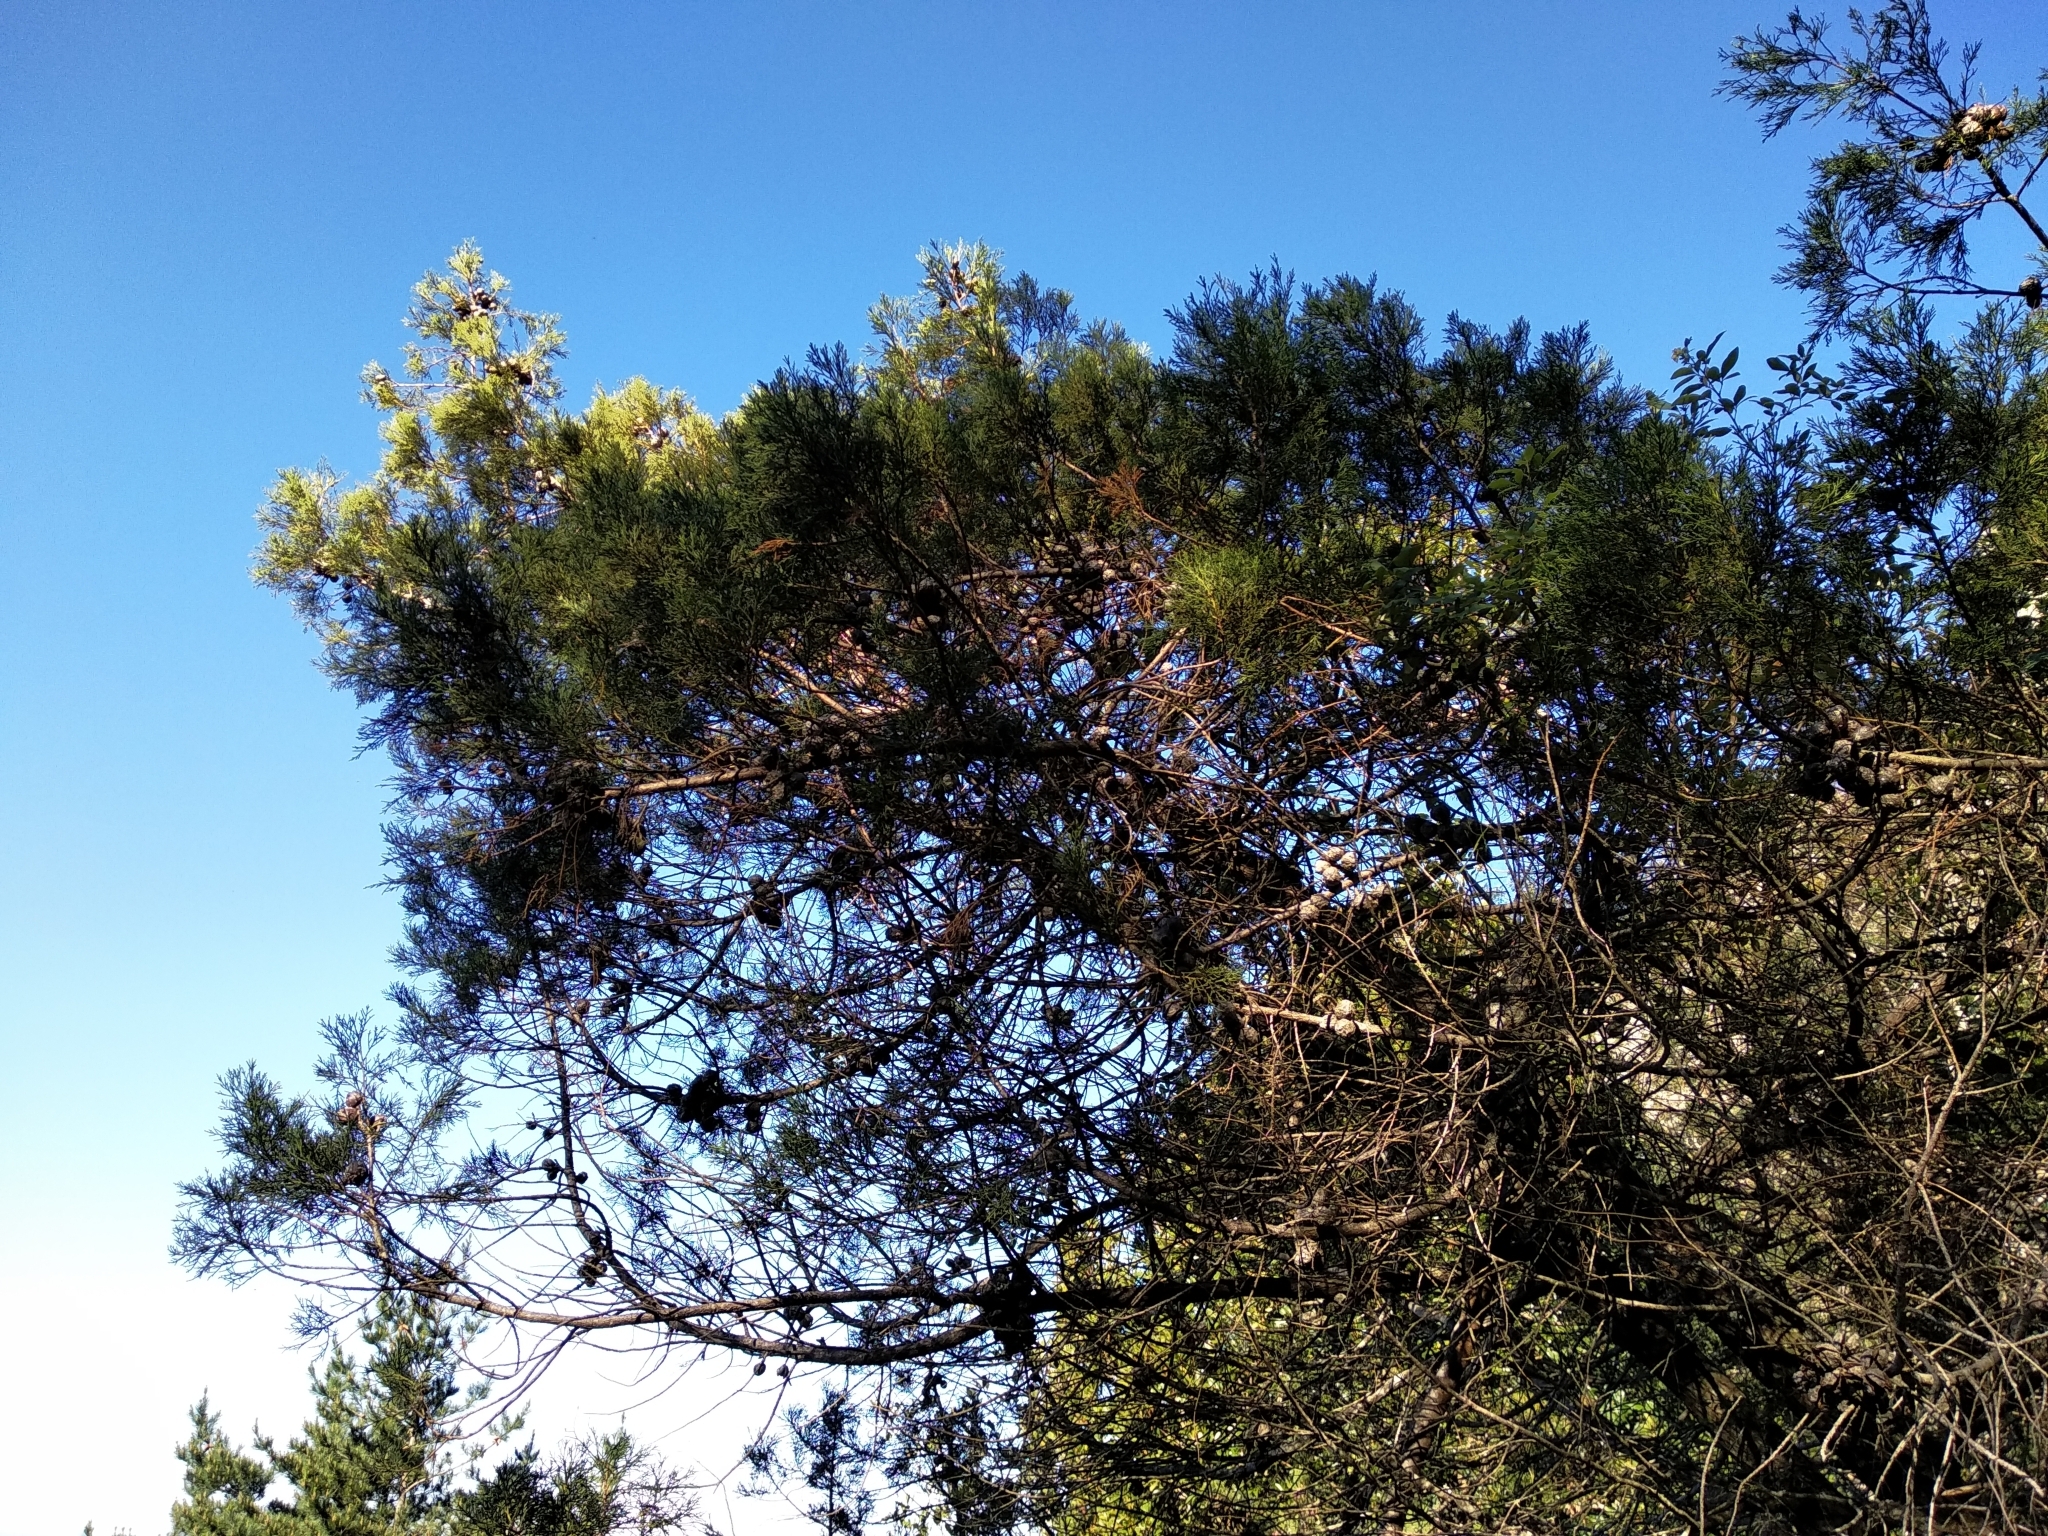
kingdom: Plantae
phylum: Tracheophyta
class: Pinopsida
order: Pinales
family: Cupressaceae
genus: Widdringtonia
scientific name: Widdringtonia nodiflora
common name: Cape cypress
